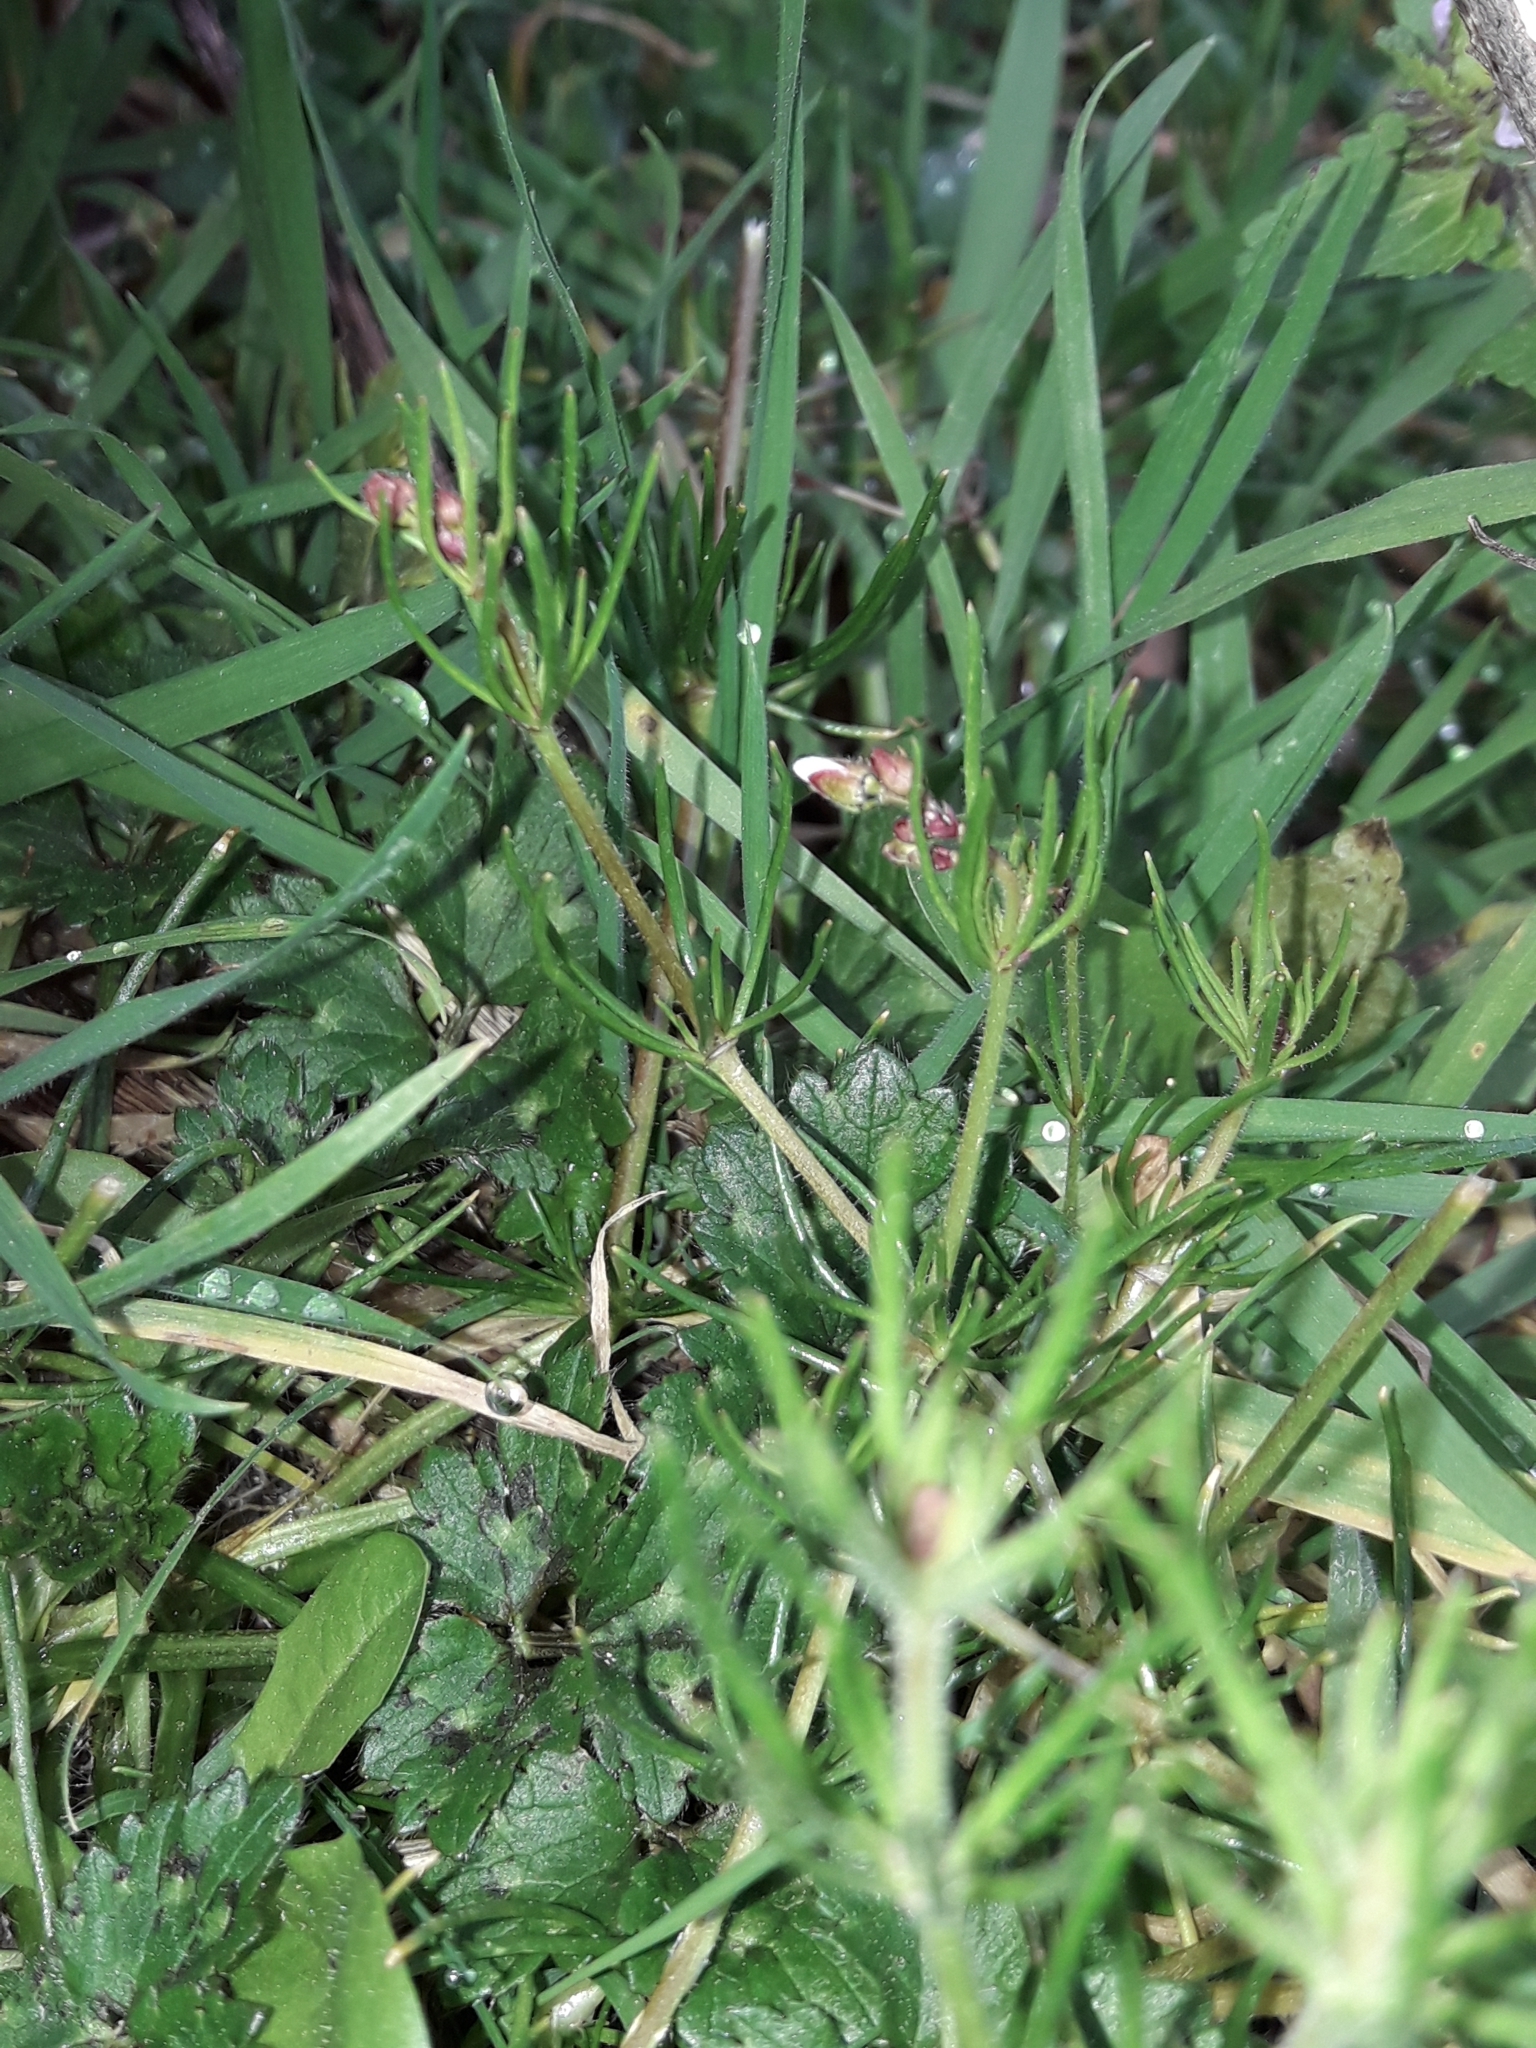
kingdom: Plantae
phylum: Tracheophyta
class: Magnoliopsida
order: Caryophyllales
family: Caryophyllaceae
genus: Spergula
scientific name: Spergula arvensis
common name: Corn spurrey
